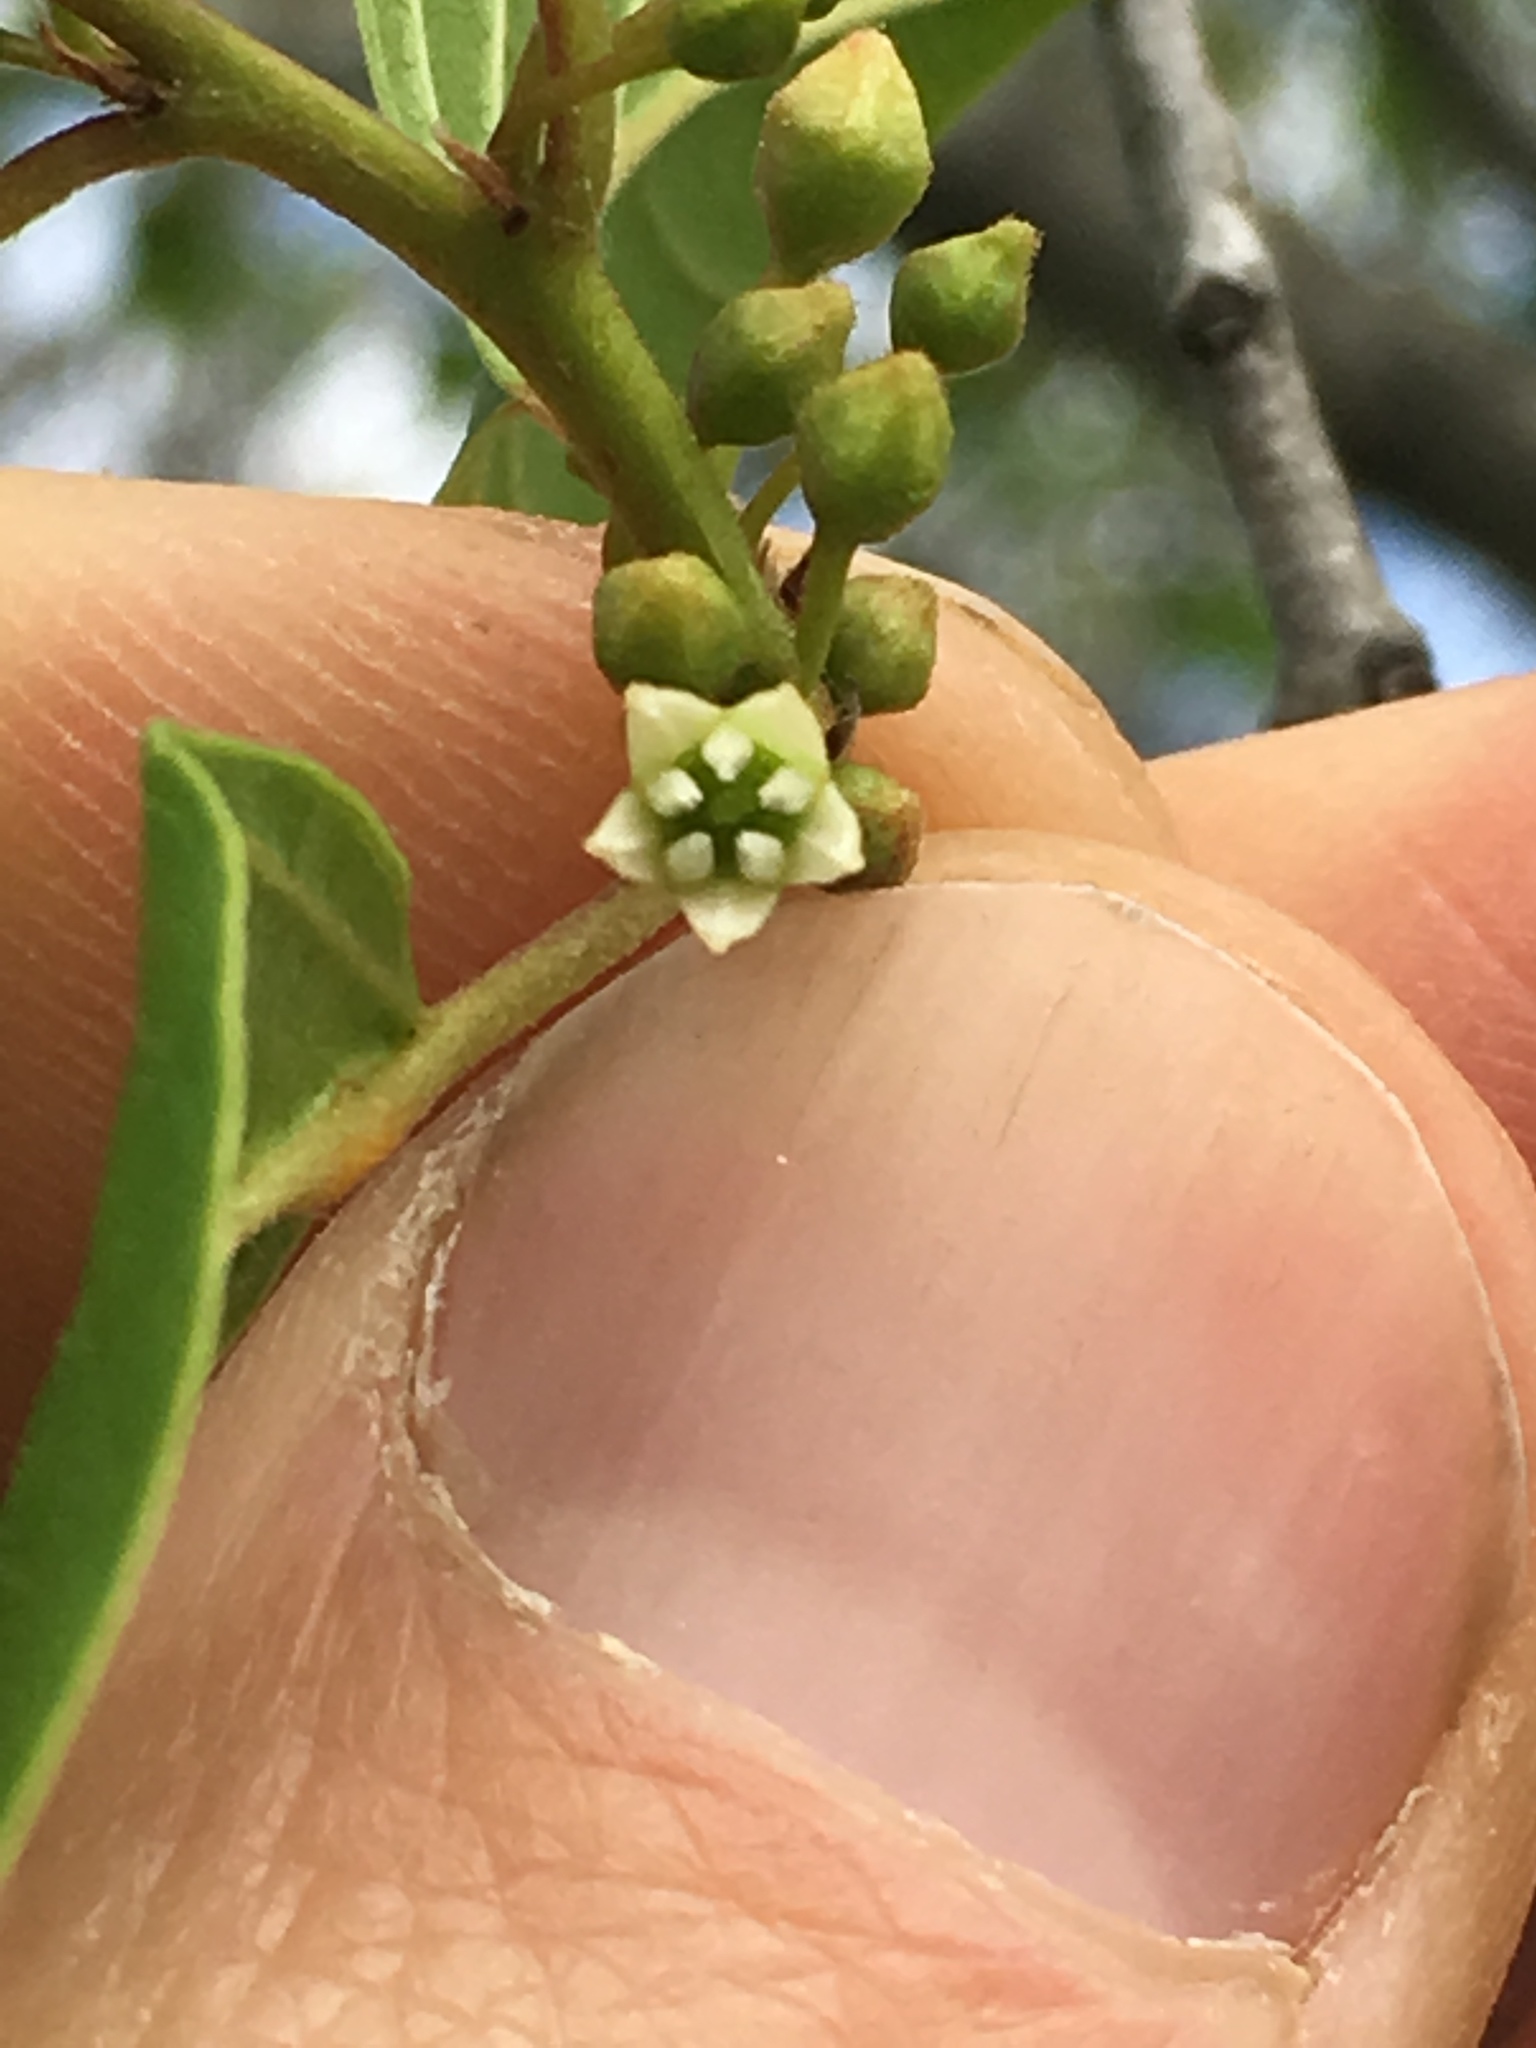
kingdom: Plantae
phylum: Tracheophyta
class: Magnoliopsida
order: Rosales
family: Rhamnaceae
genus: Frangula
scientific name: Frangula alnus
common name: Alder buckthorn
